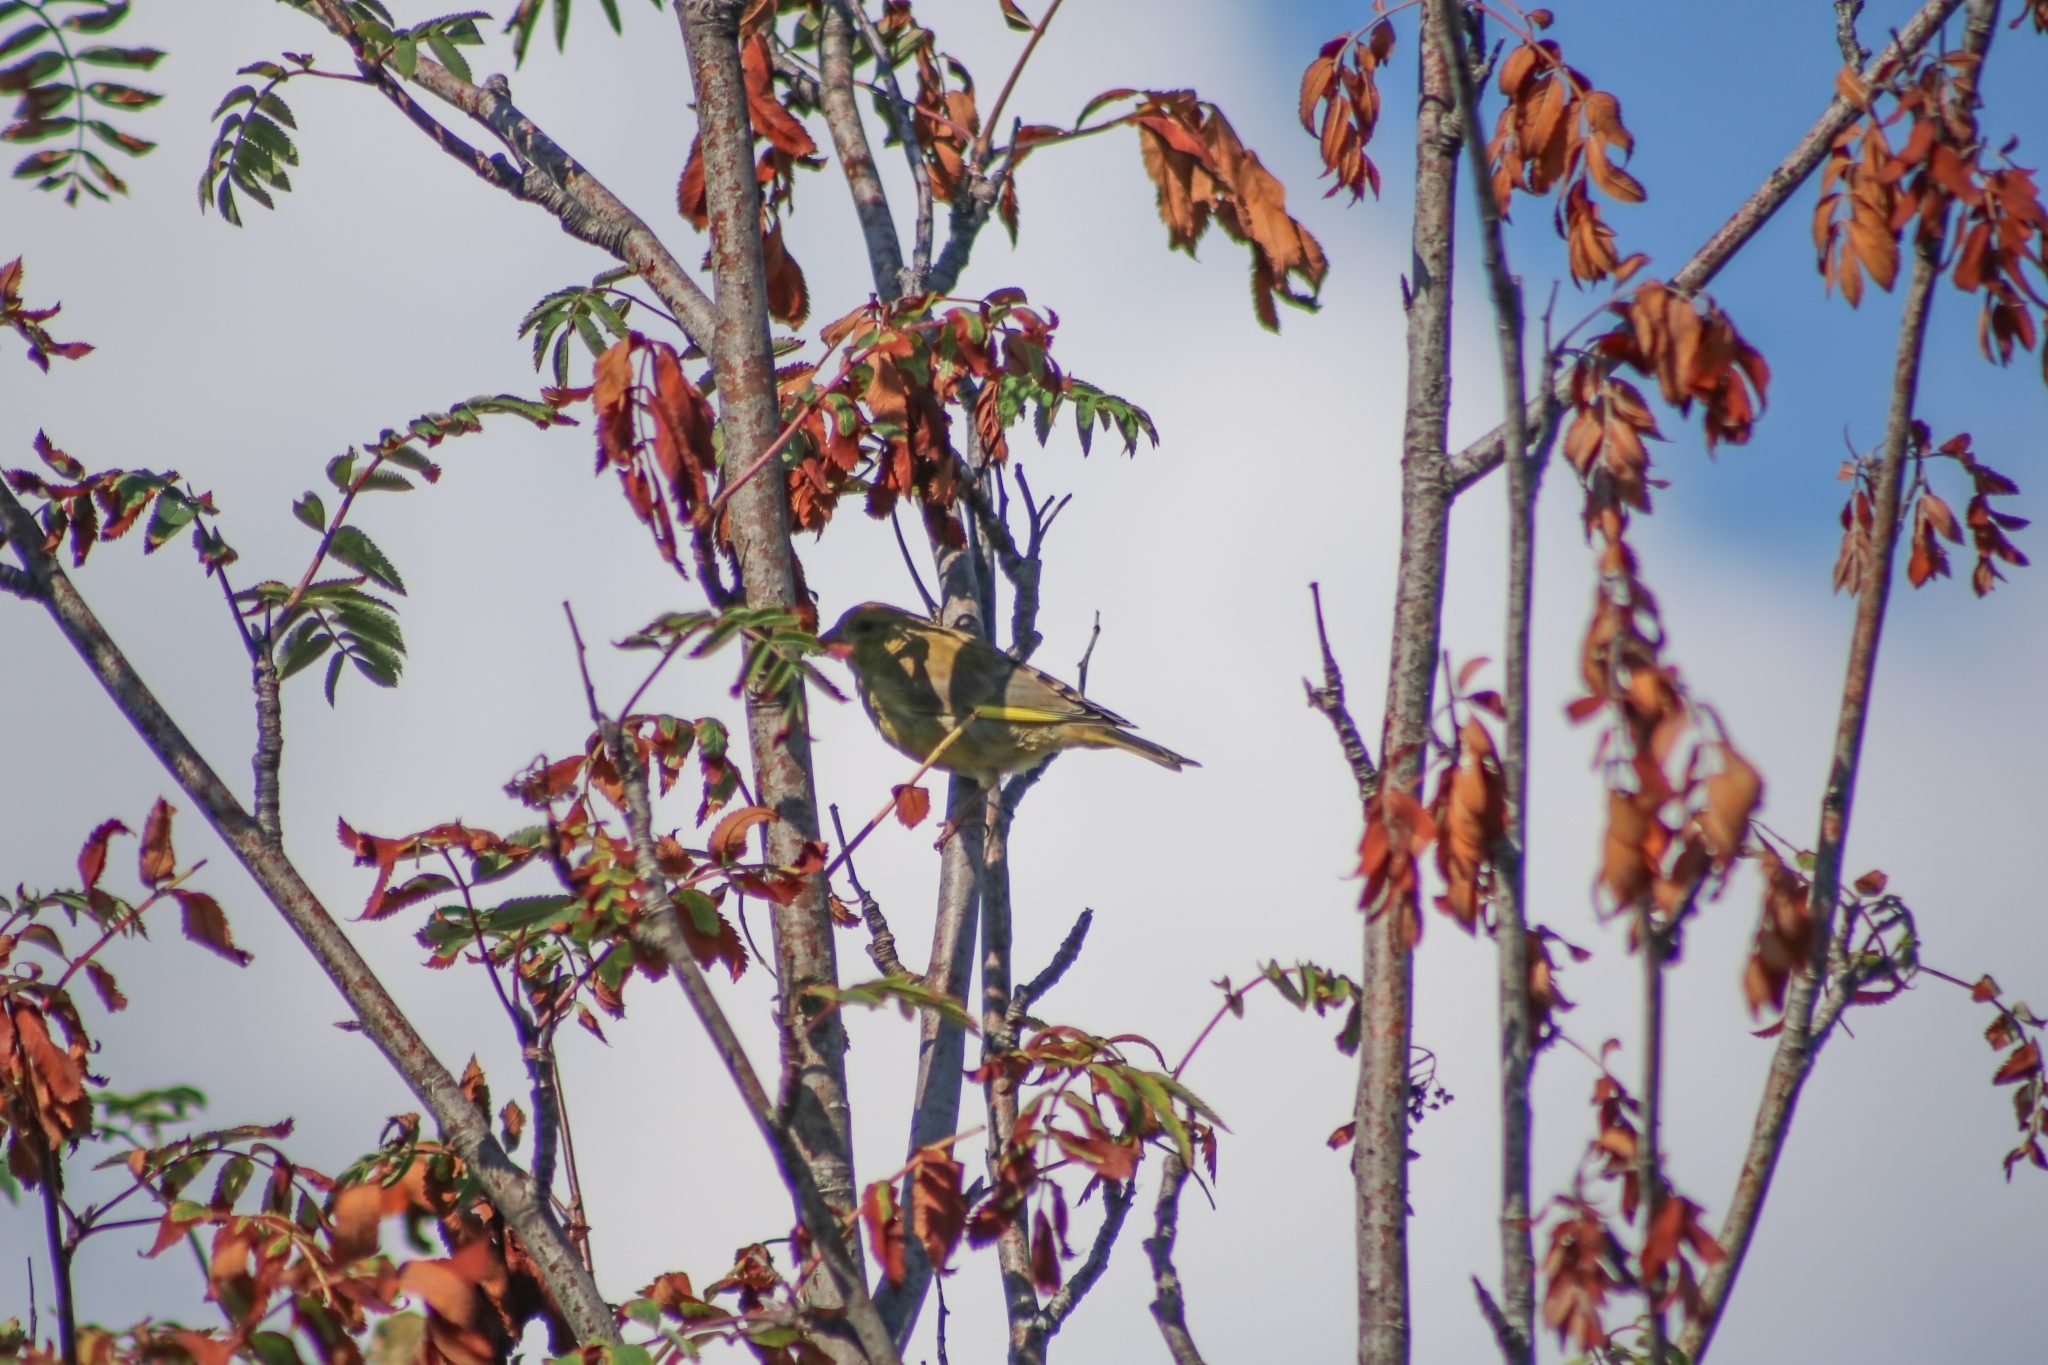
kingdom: Plantae
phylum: Tracheophyta
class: Liliopsida
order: Poales
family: Poaceae
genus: Chloris
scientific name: Chloris chloris
